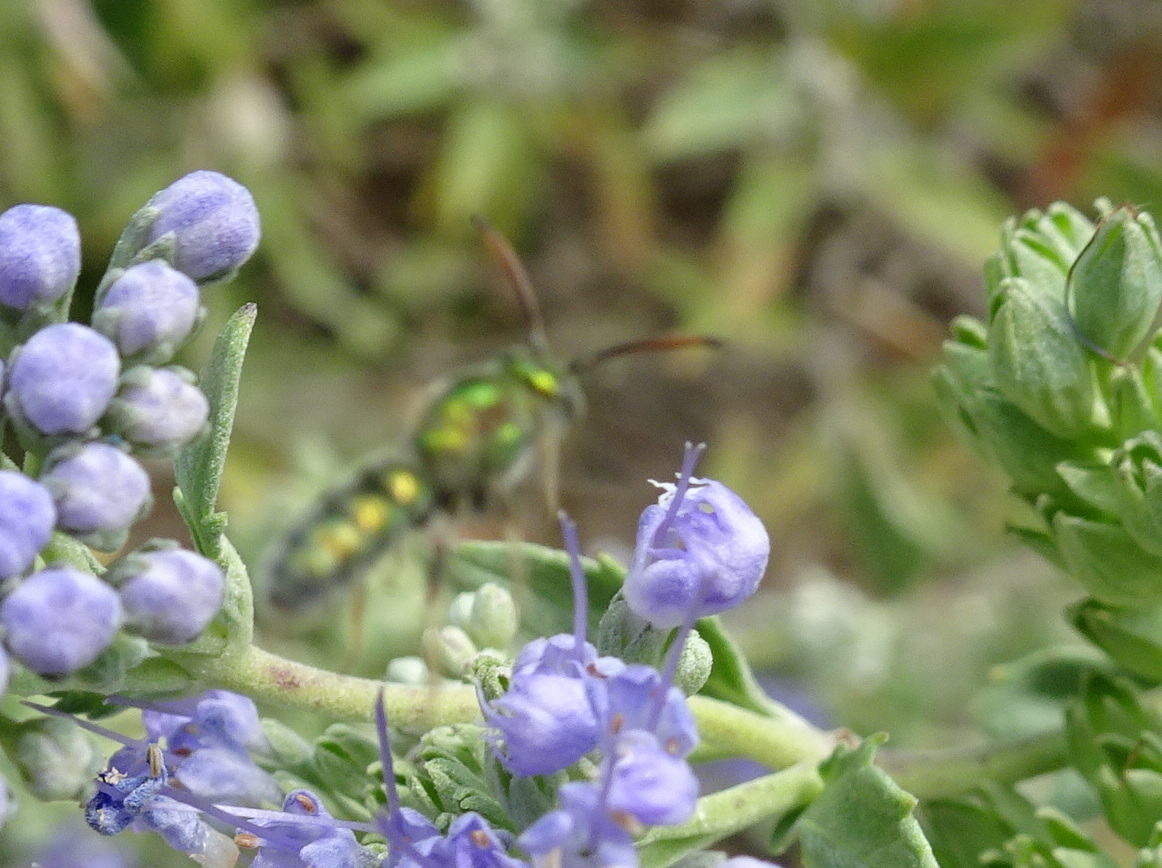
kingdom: Animalia
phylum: Arthropoda
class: Insecta
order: Hymenoptera
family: Halictidae
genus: Augochlora
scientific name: Augochlora pura
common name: Pure green sweat bee
